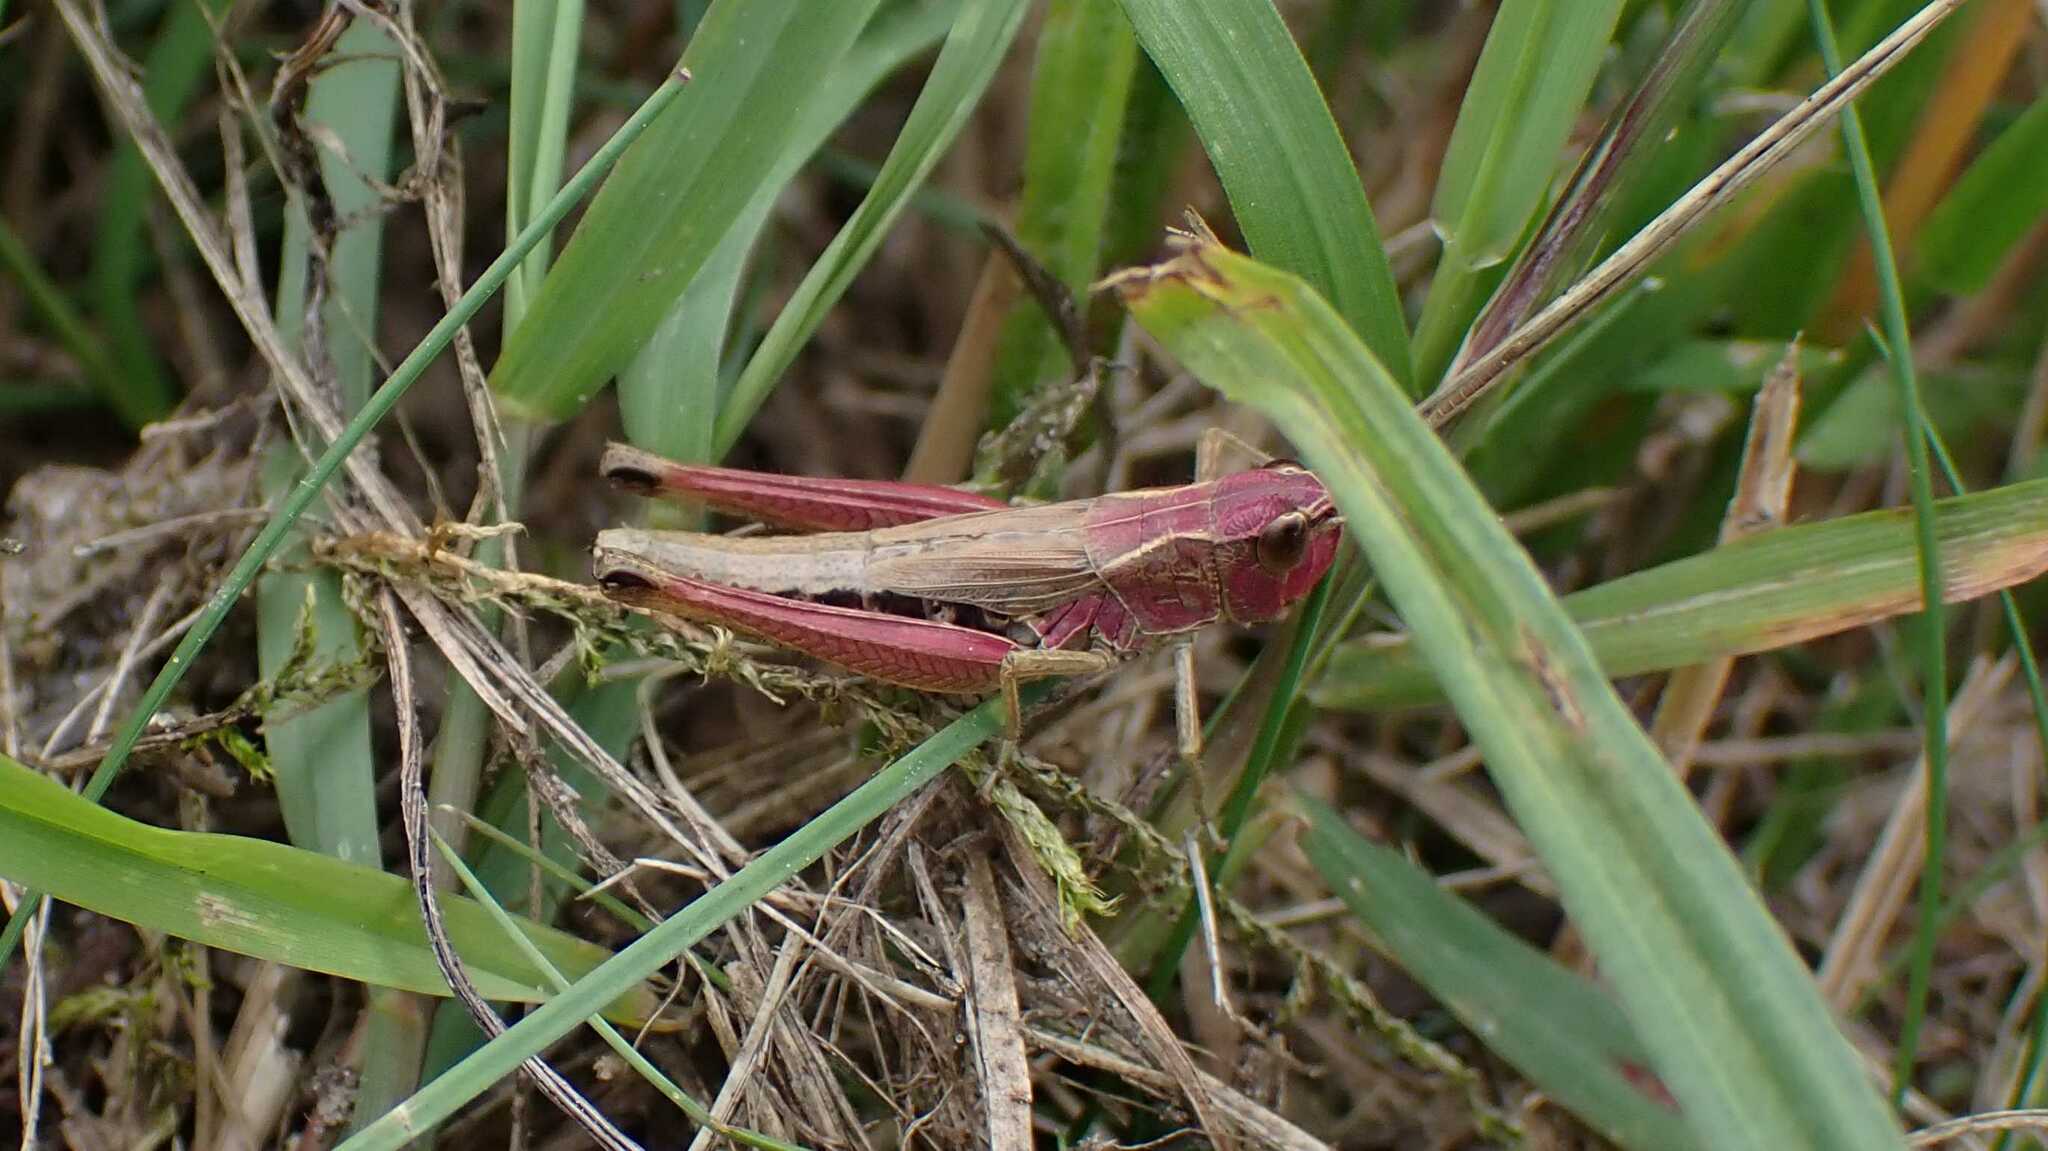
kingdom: Animalia
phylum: Arthropoda
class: Insecta
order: Orthoptera
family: Acrididae
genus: Pseudochorthippus
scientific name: Pseudochorthippus parallelus
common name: Meadow grasshopper
